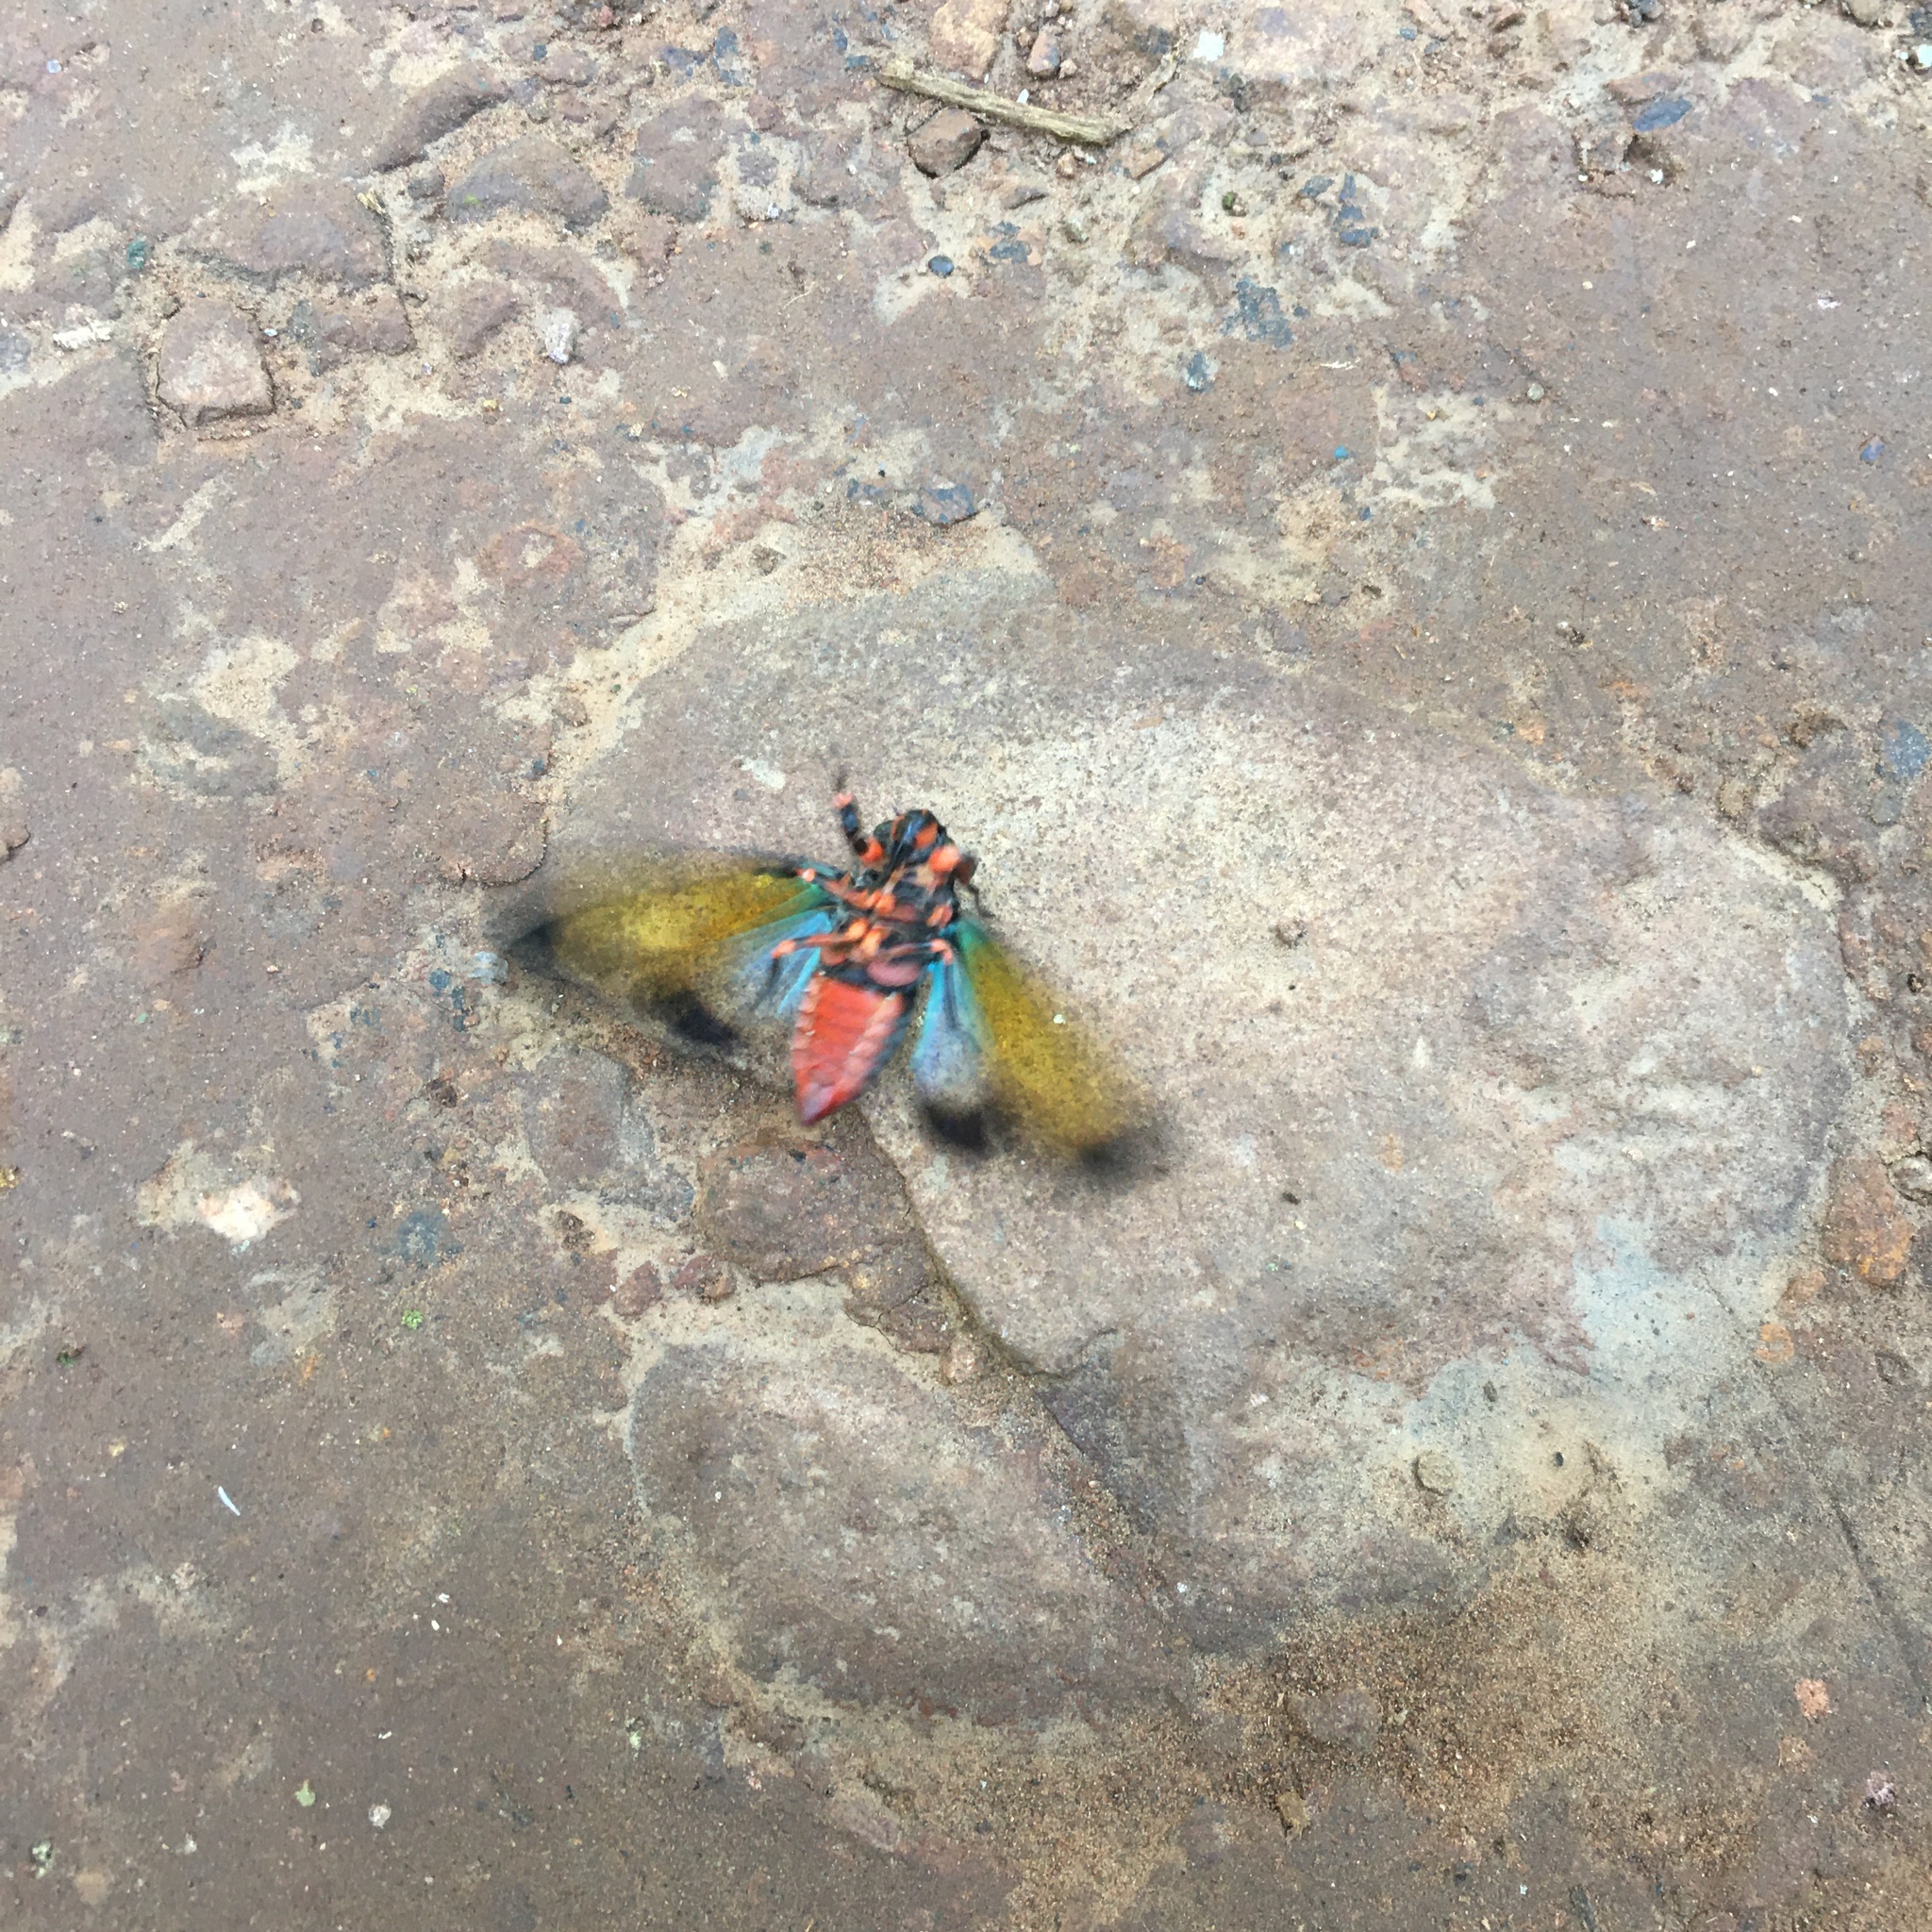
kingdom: Animalia
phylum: Arthropoda
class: Insecta
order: Hemiptera
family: Cicadidae
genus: Carineta
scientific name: Carineta diardi
